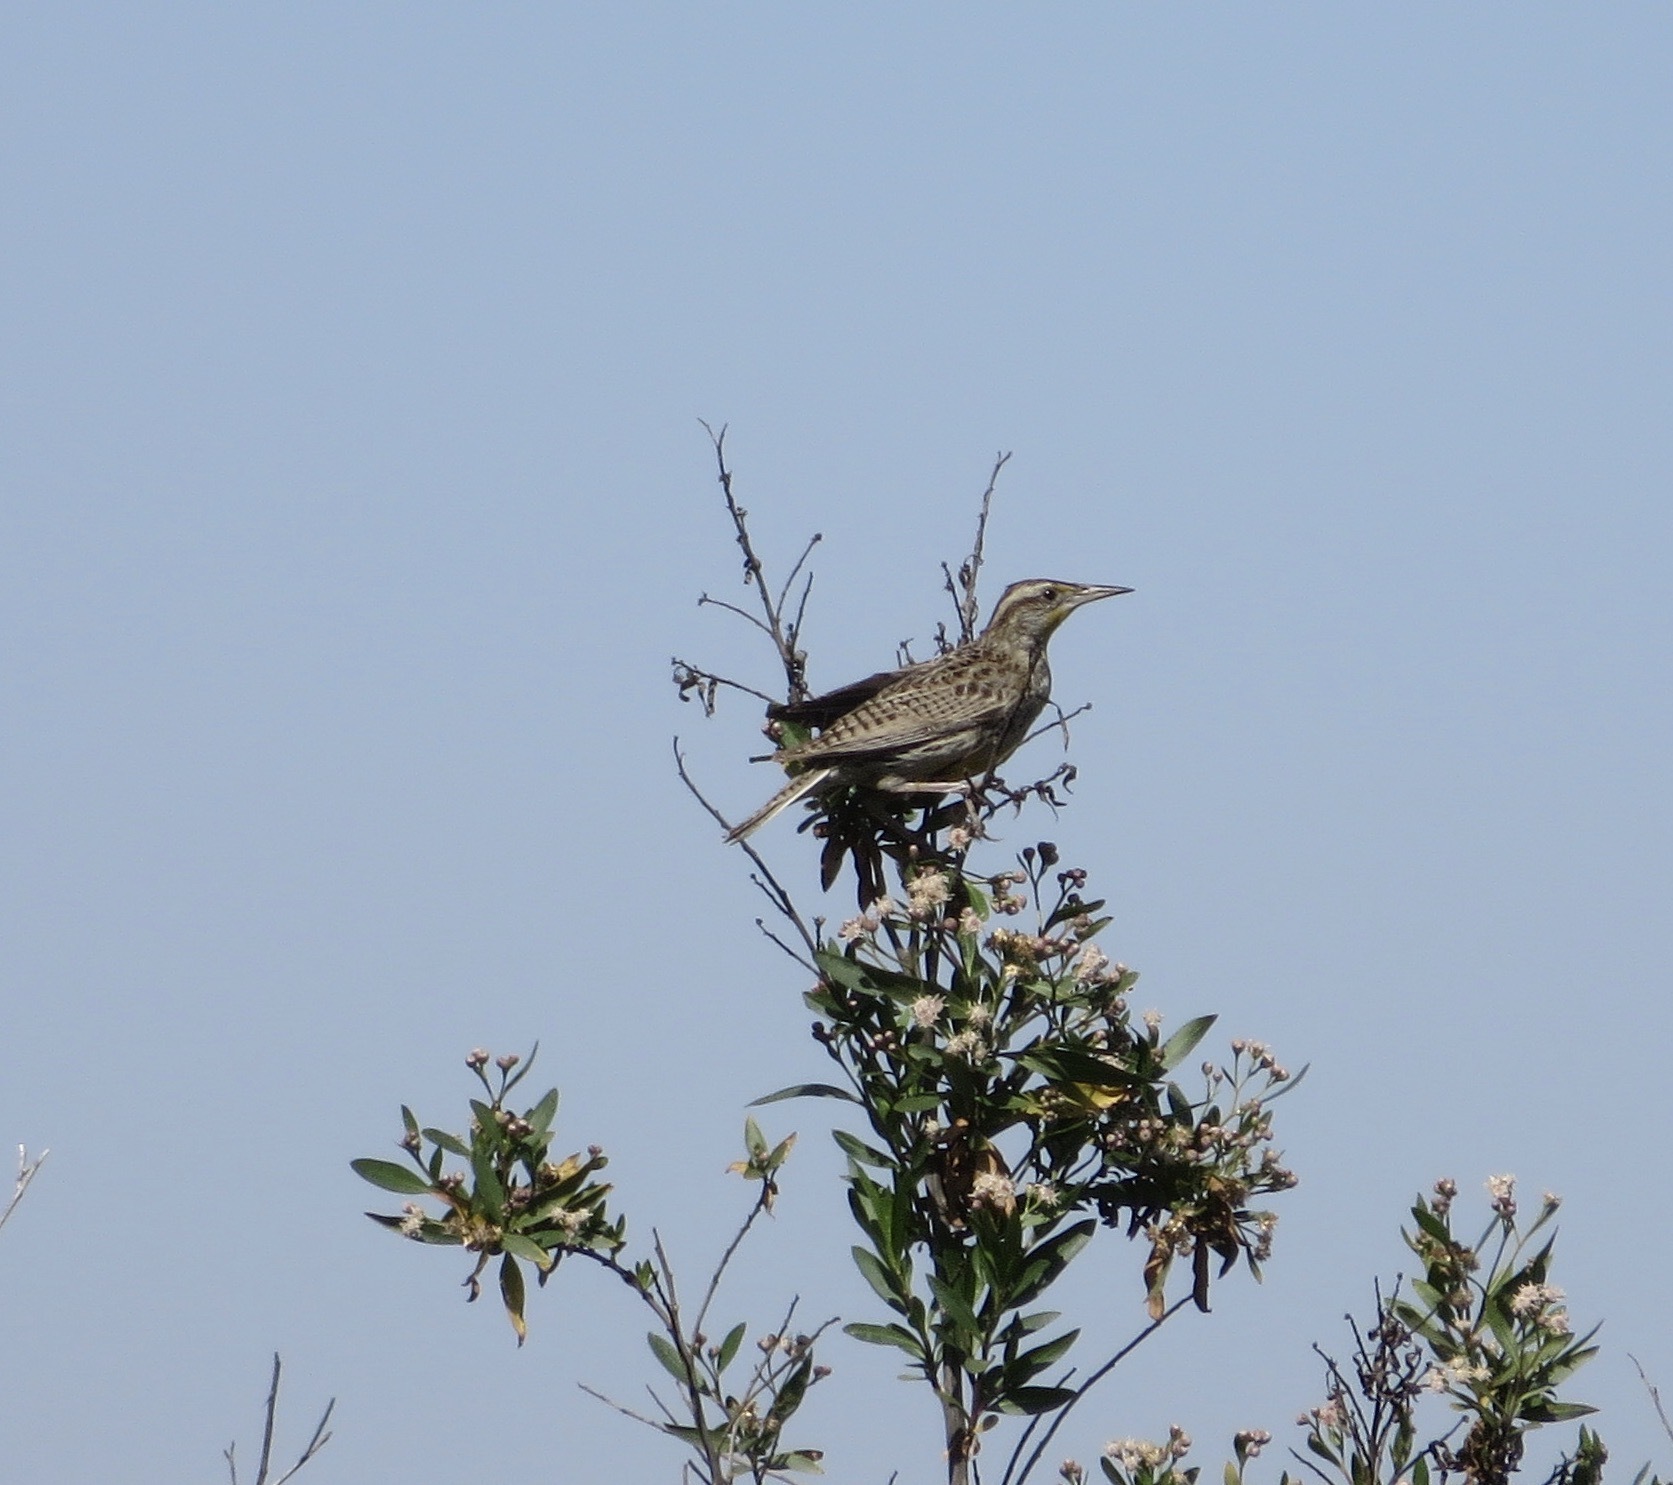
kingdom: Animalia
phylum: Chordata
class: Aves
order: Passeriformes
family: Icteridae
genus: Sturnella
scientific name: Sturnella neglecta
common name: Western meadowlark
